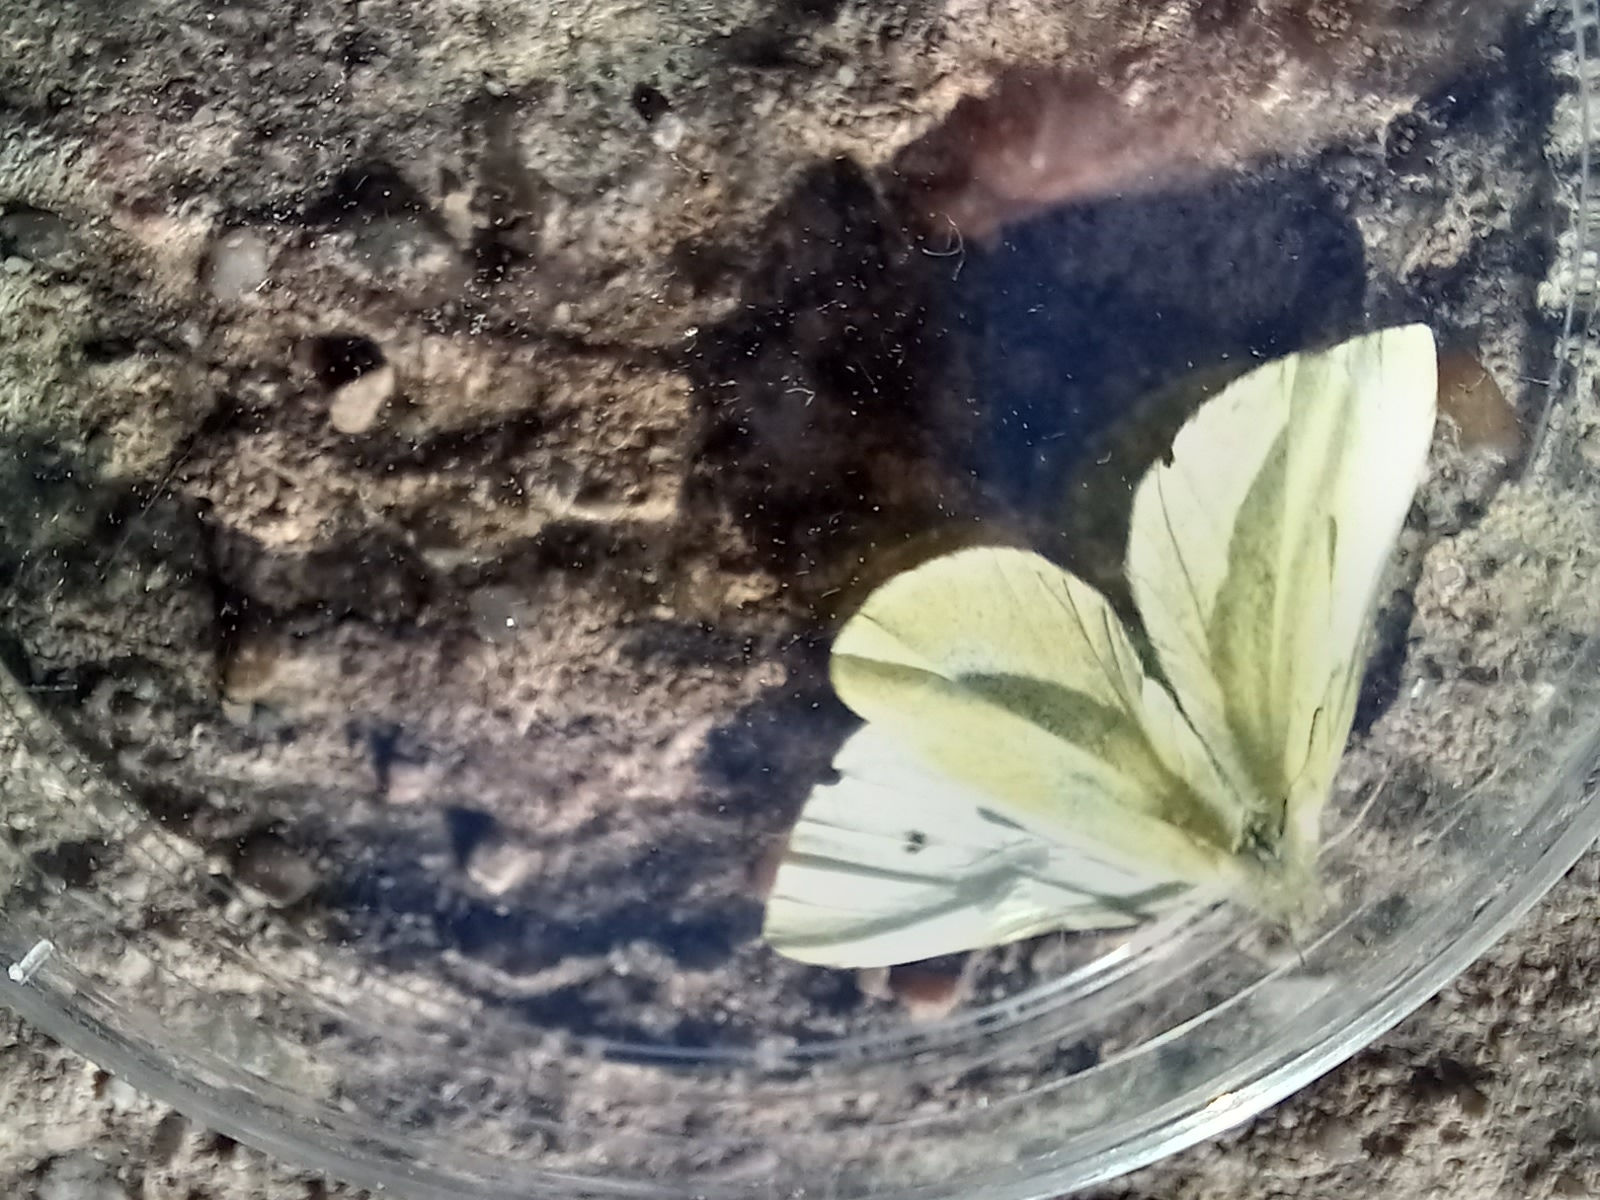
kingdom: Animalia
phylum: Arthropoda
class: Insecta
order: Lepidoptera
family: Pieridae
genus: Pieris
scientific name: Pieris rapae
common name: Small white
